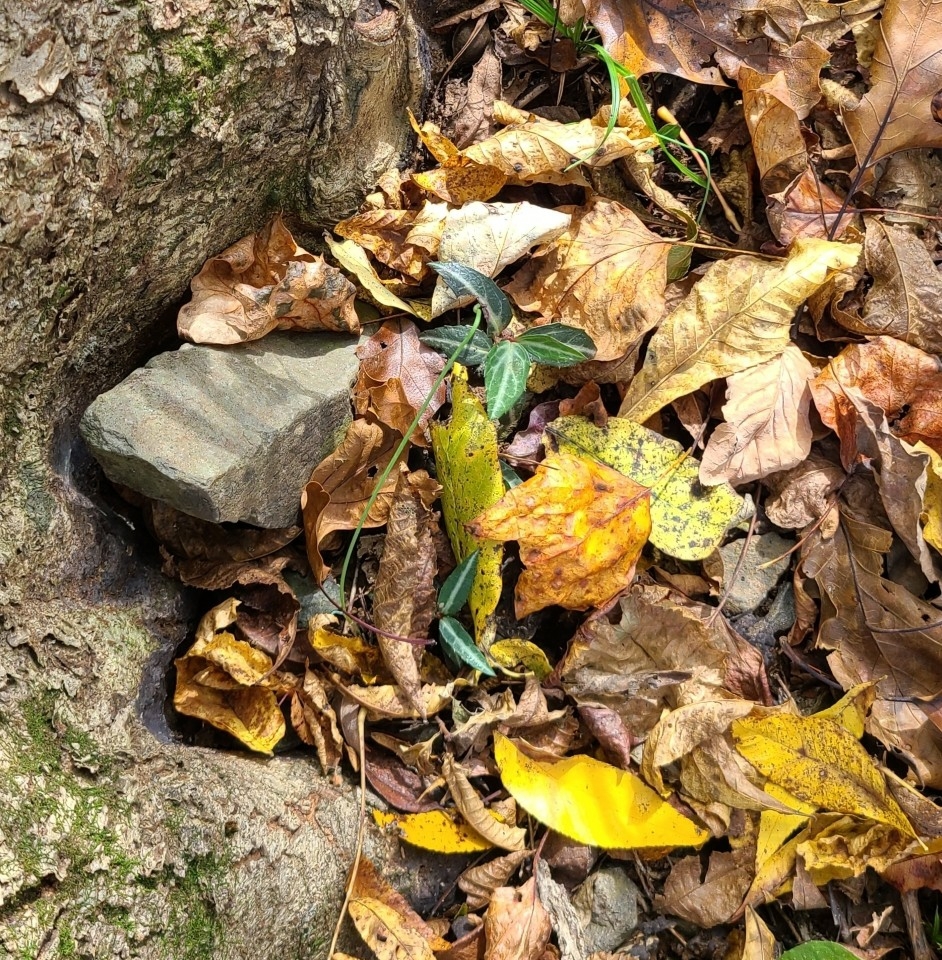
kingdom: Plantae
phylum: Tracheophyta
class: Magnoliopsida
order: Ericales
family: Ericaceae
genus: Chimaphila
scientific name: Chimaphila maculata
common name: Spotted pipsissewa
